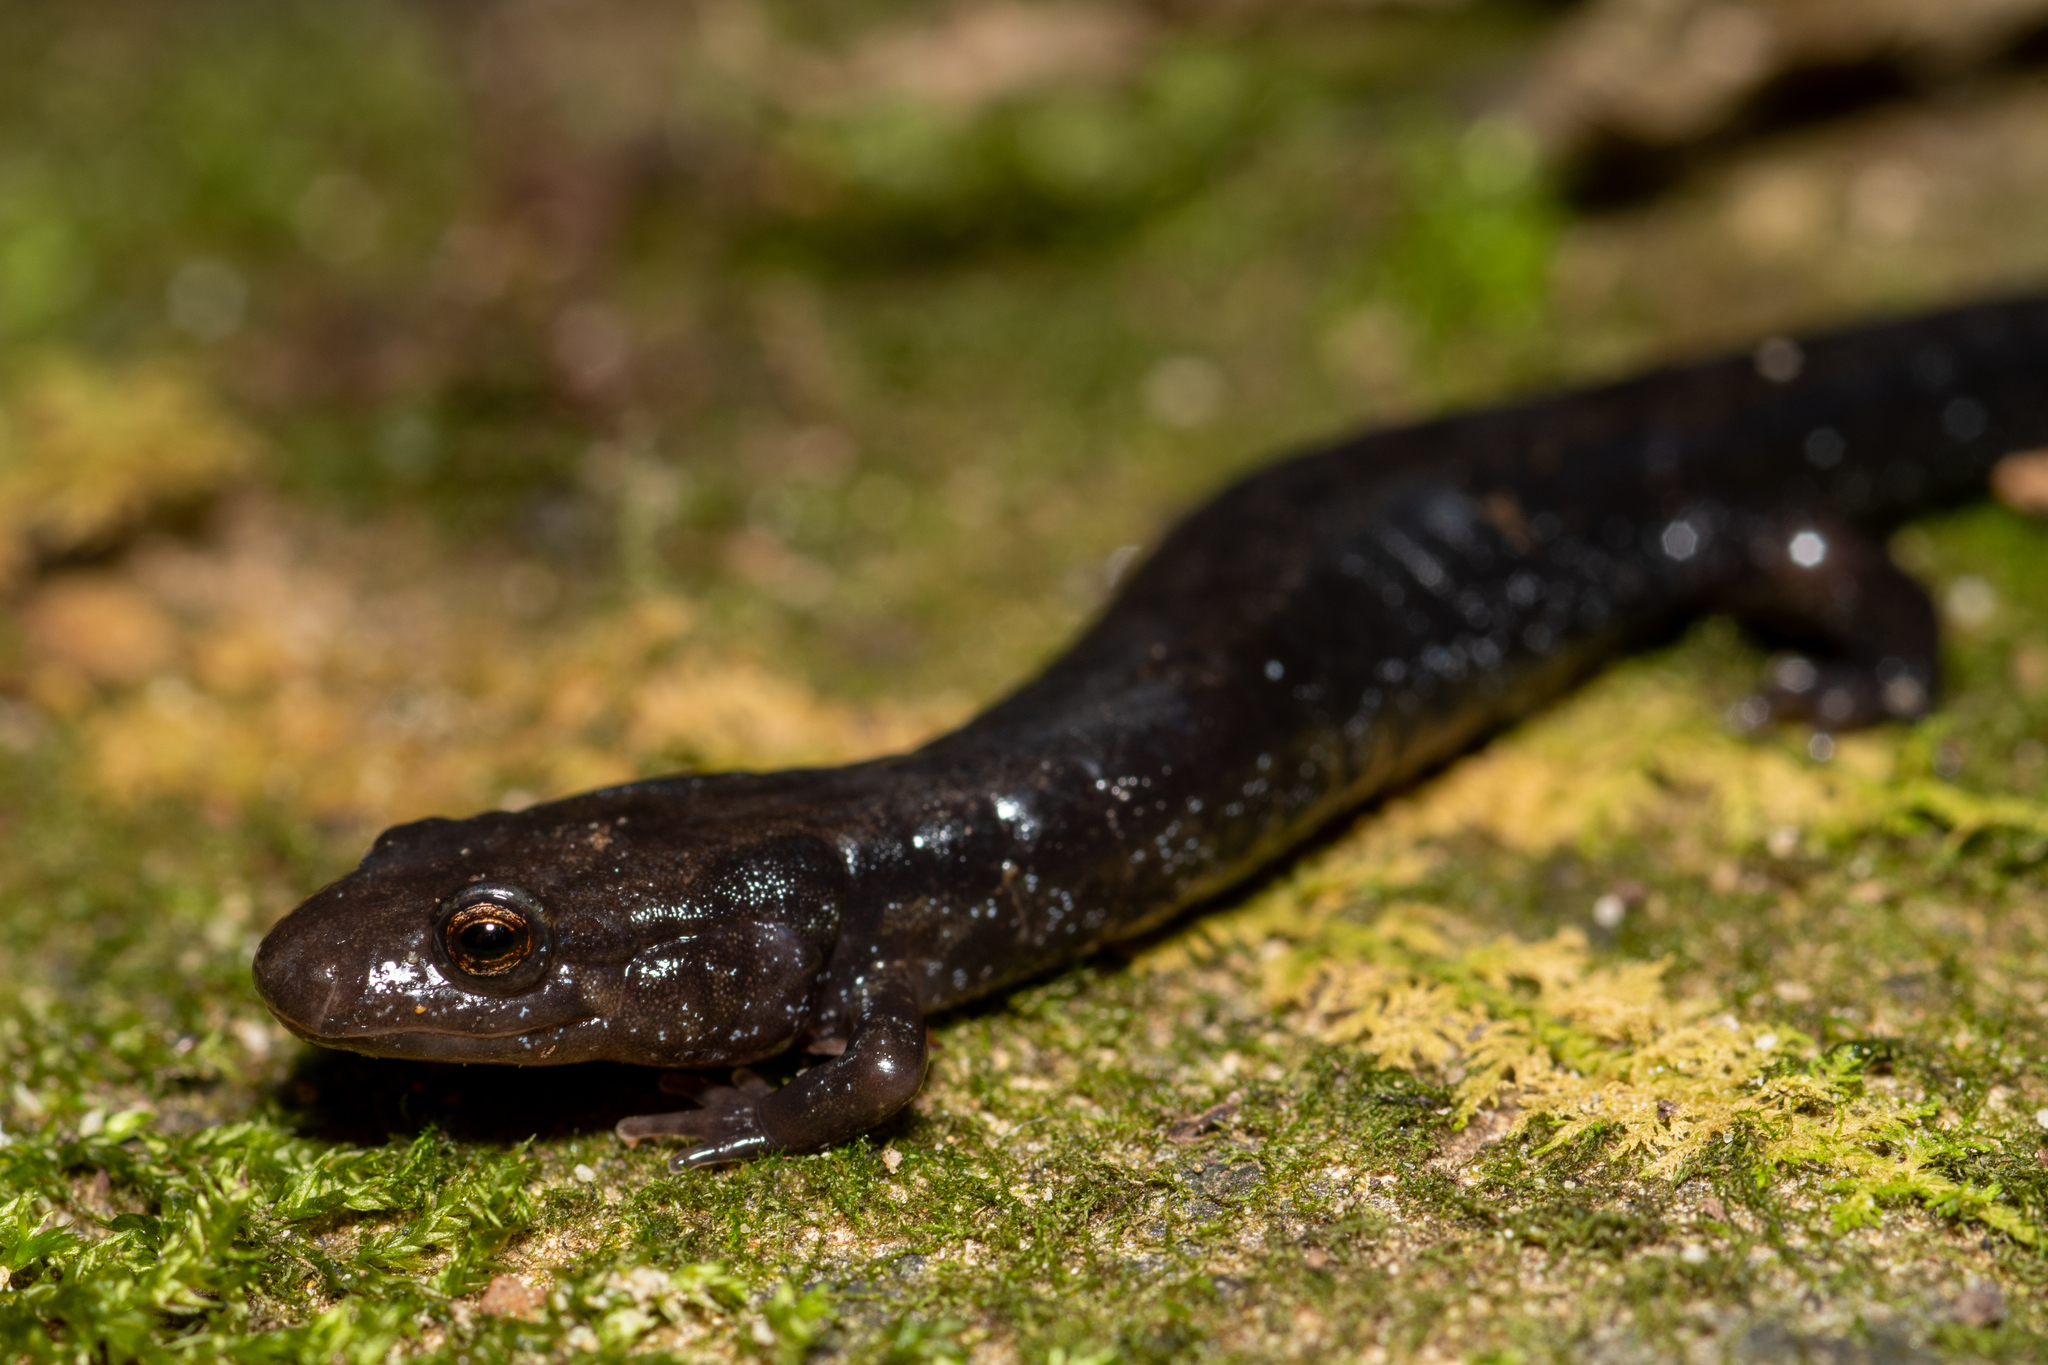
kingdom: Animalia
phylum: Chordata
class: Amphibia
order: Caudata
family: Plethodontidae
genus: Desmognathus
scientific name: Desmognathus ochrophaeus
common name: Allegheny mountain dusky salamander
